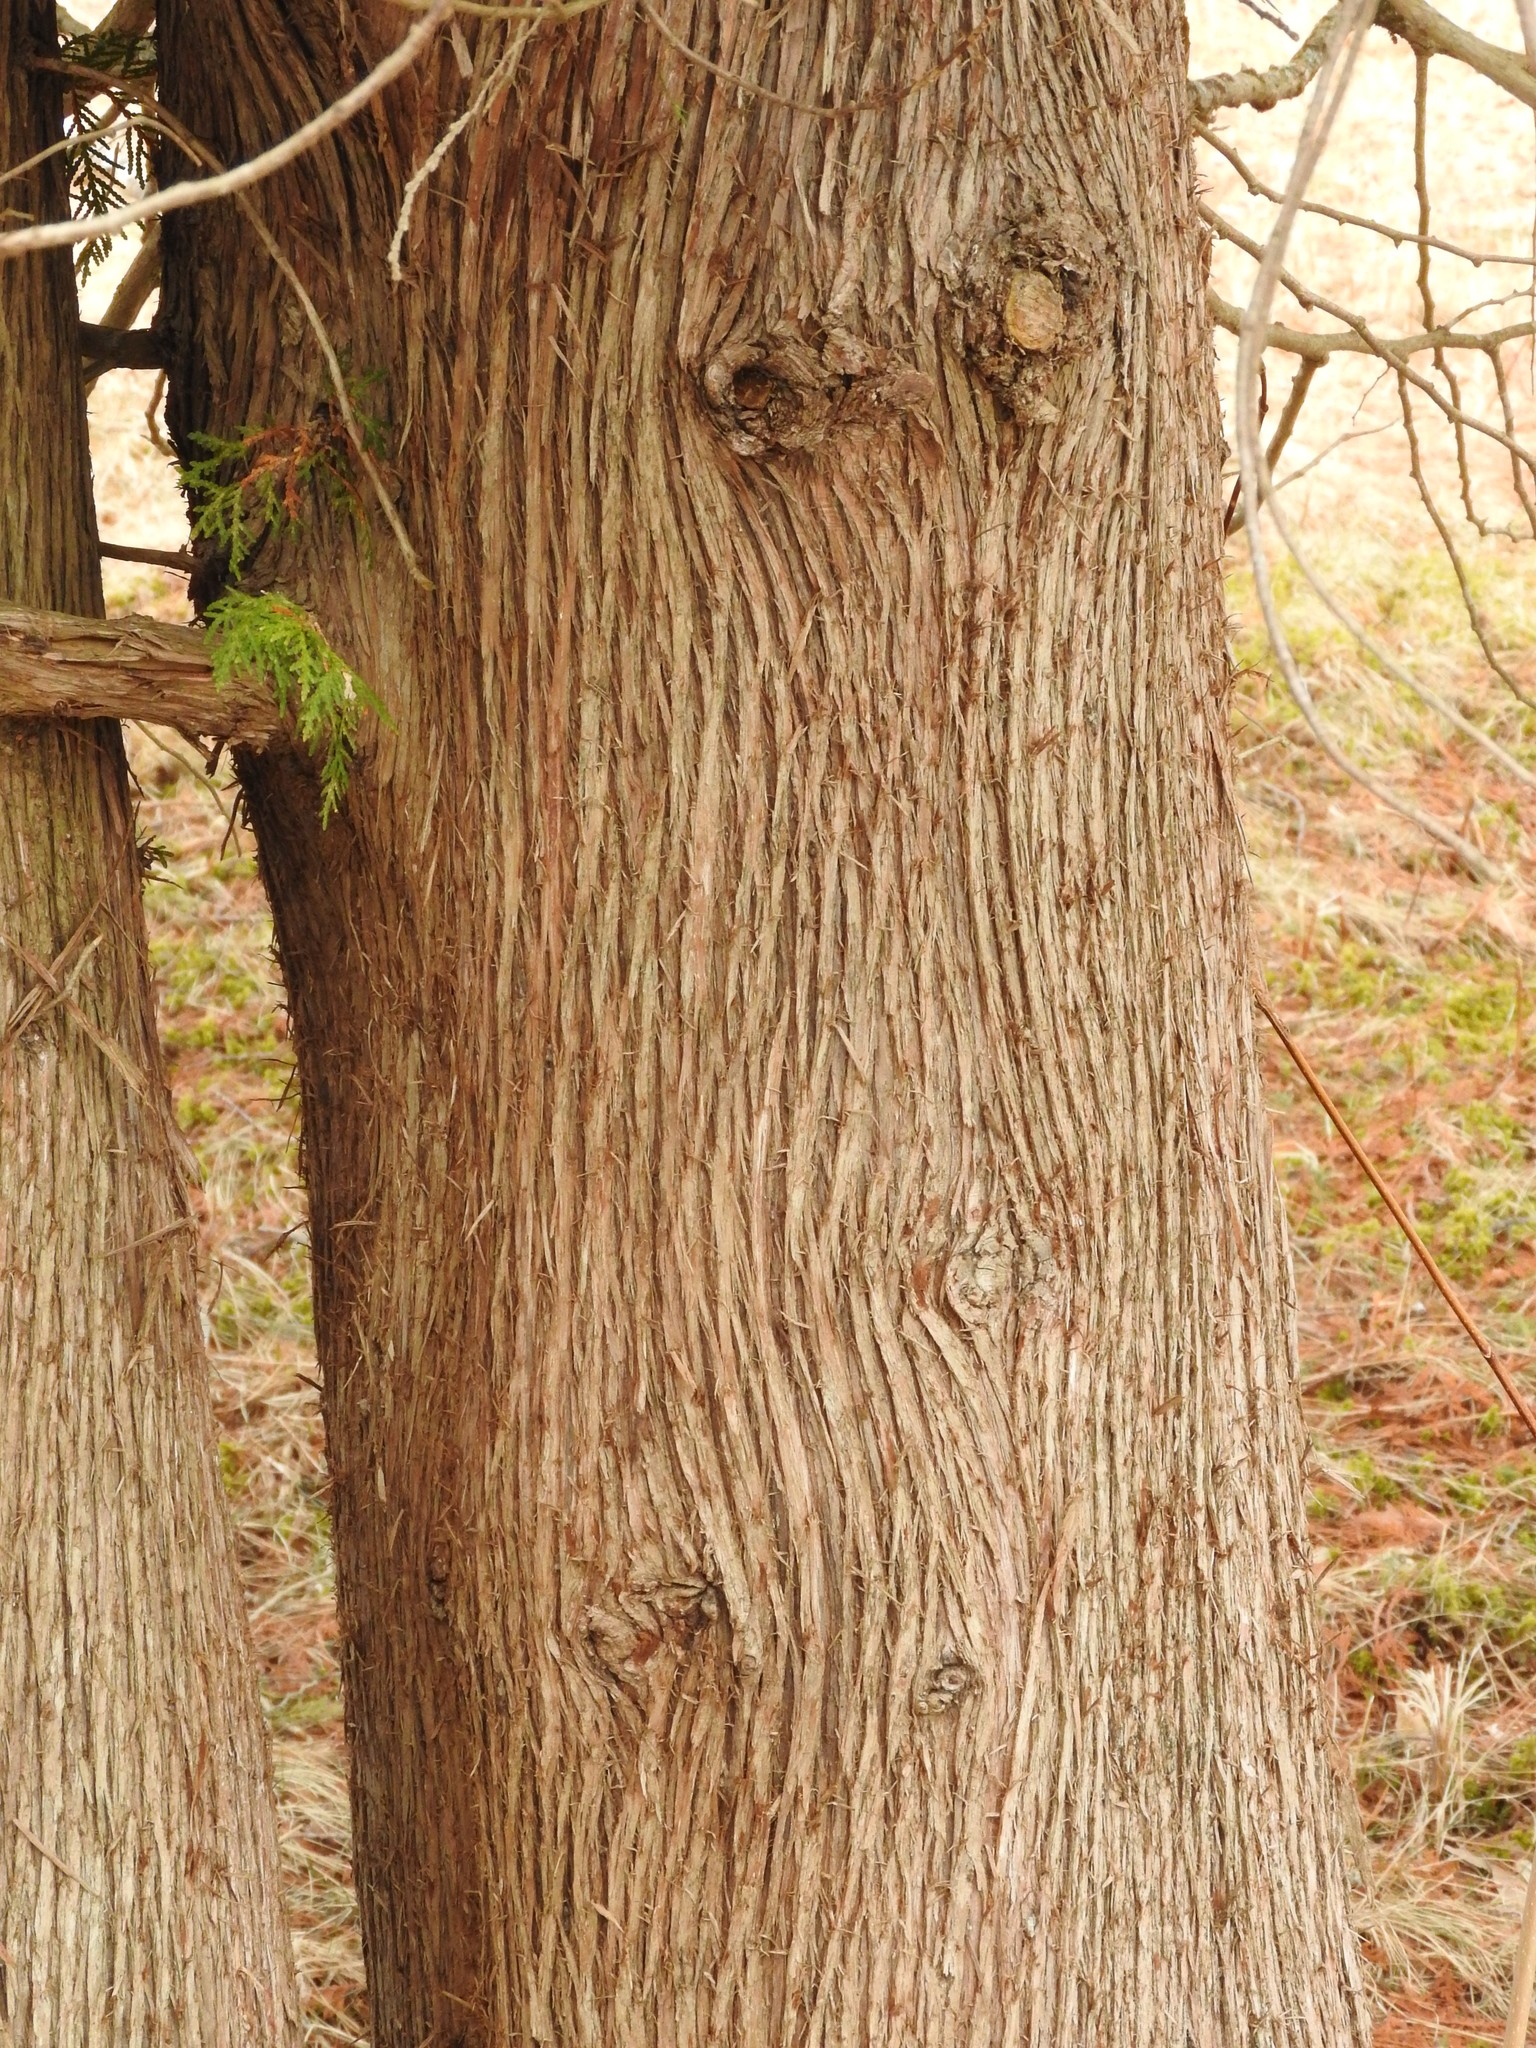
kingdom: Plantae
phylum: Tracheophyta
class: Pinopsida
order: Pinales
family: Cupressaceae
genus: Thuja
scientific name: Thuja occidentalis
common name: Northern white-cedar
